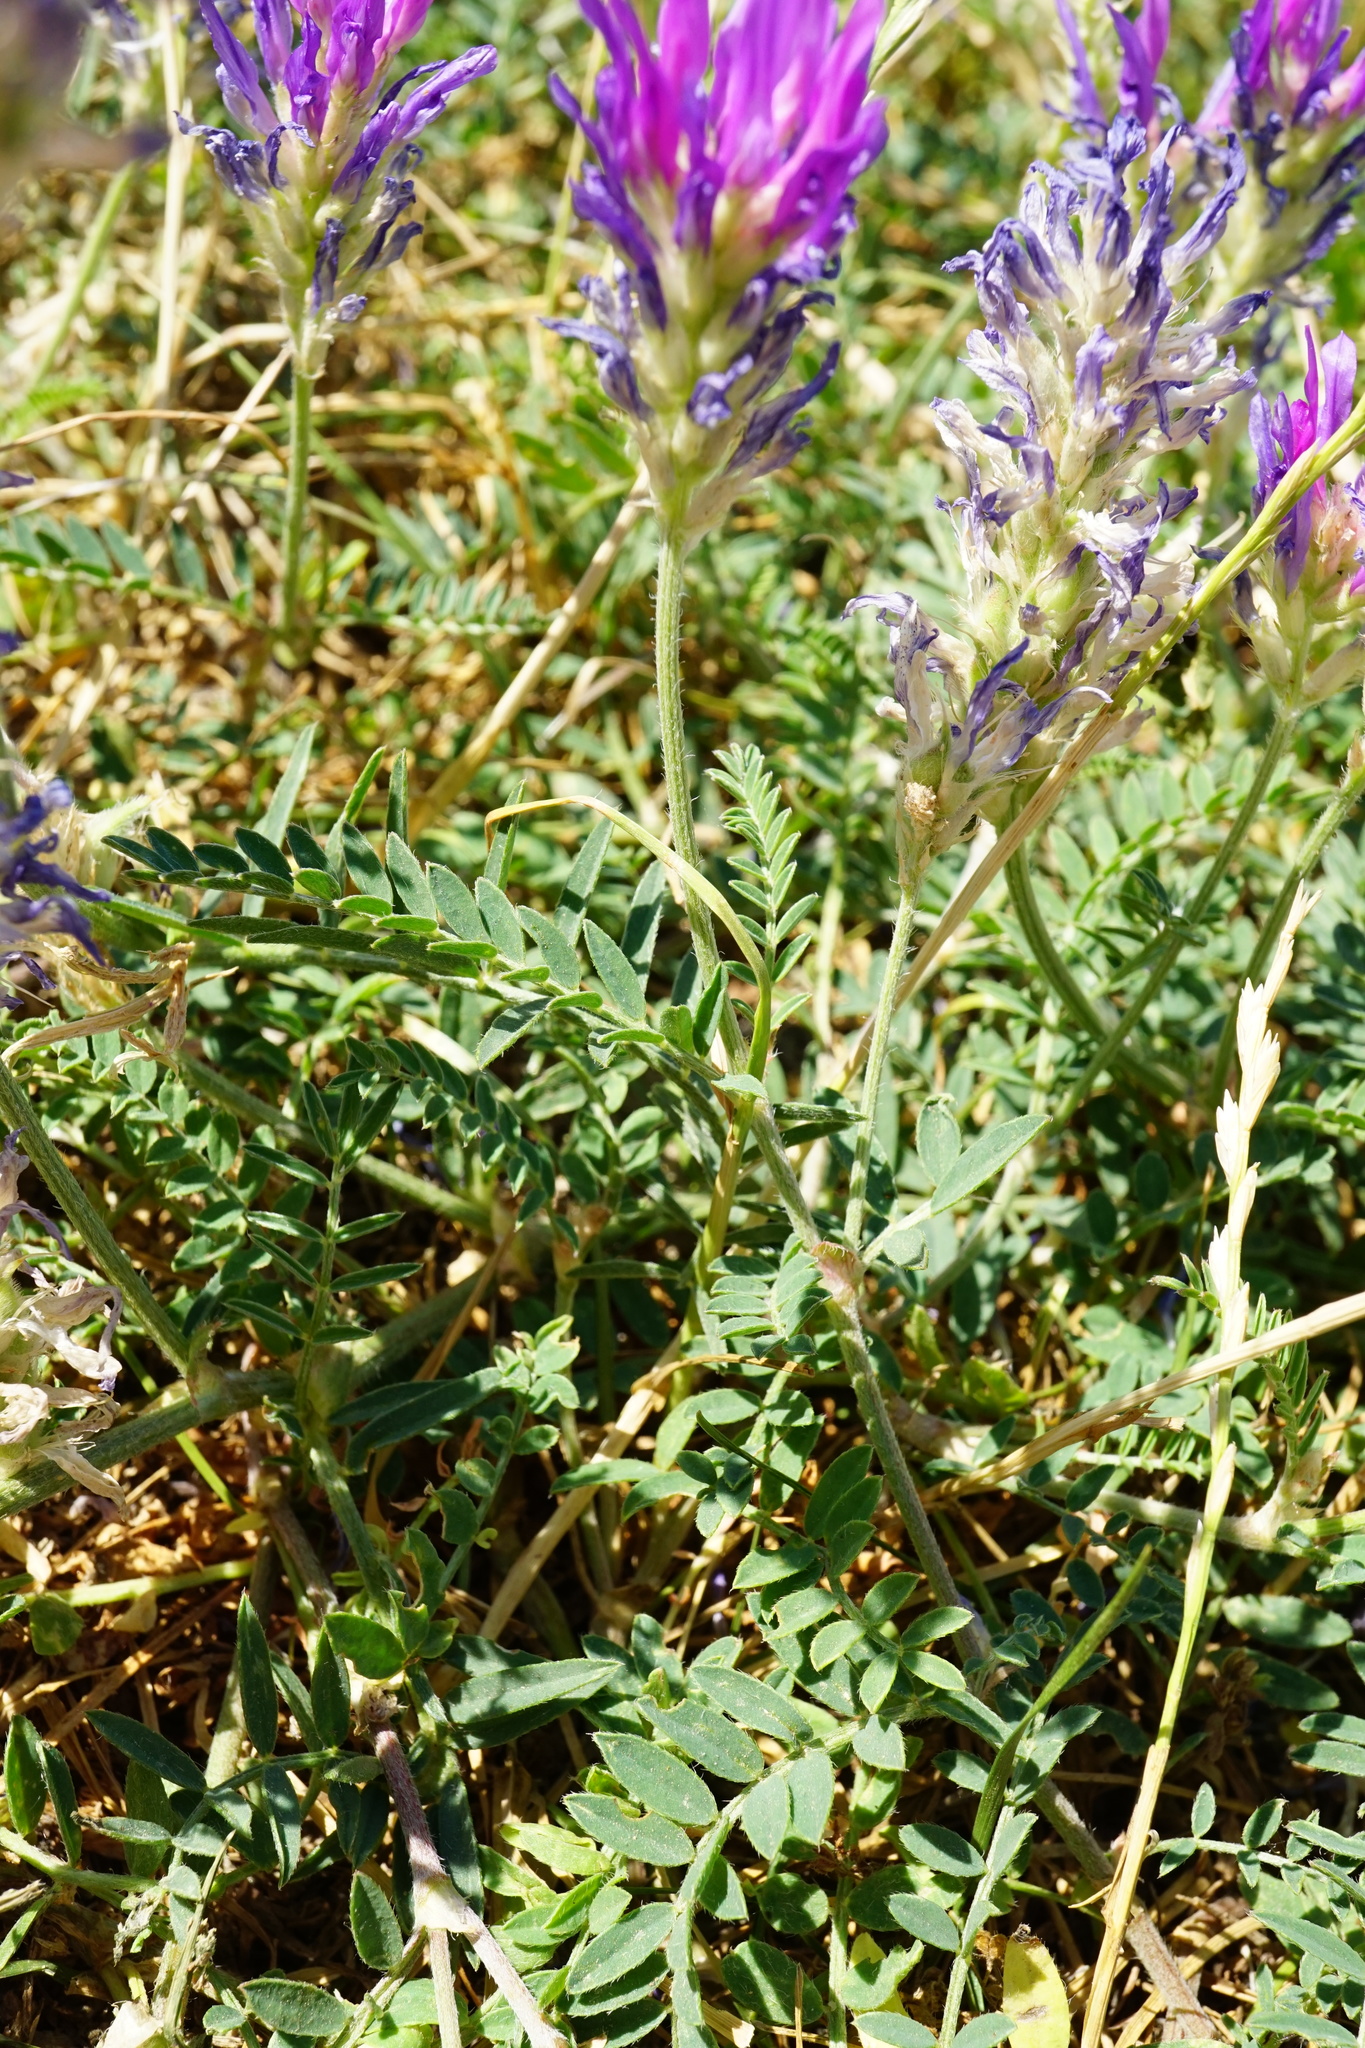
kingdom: Plantae
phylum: Tracheophyta
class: Magnoliopsida
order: Fabales
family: Fabaceae
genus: Astragalus
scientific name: Astragalus onobrychis
